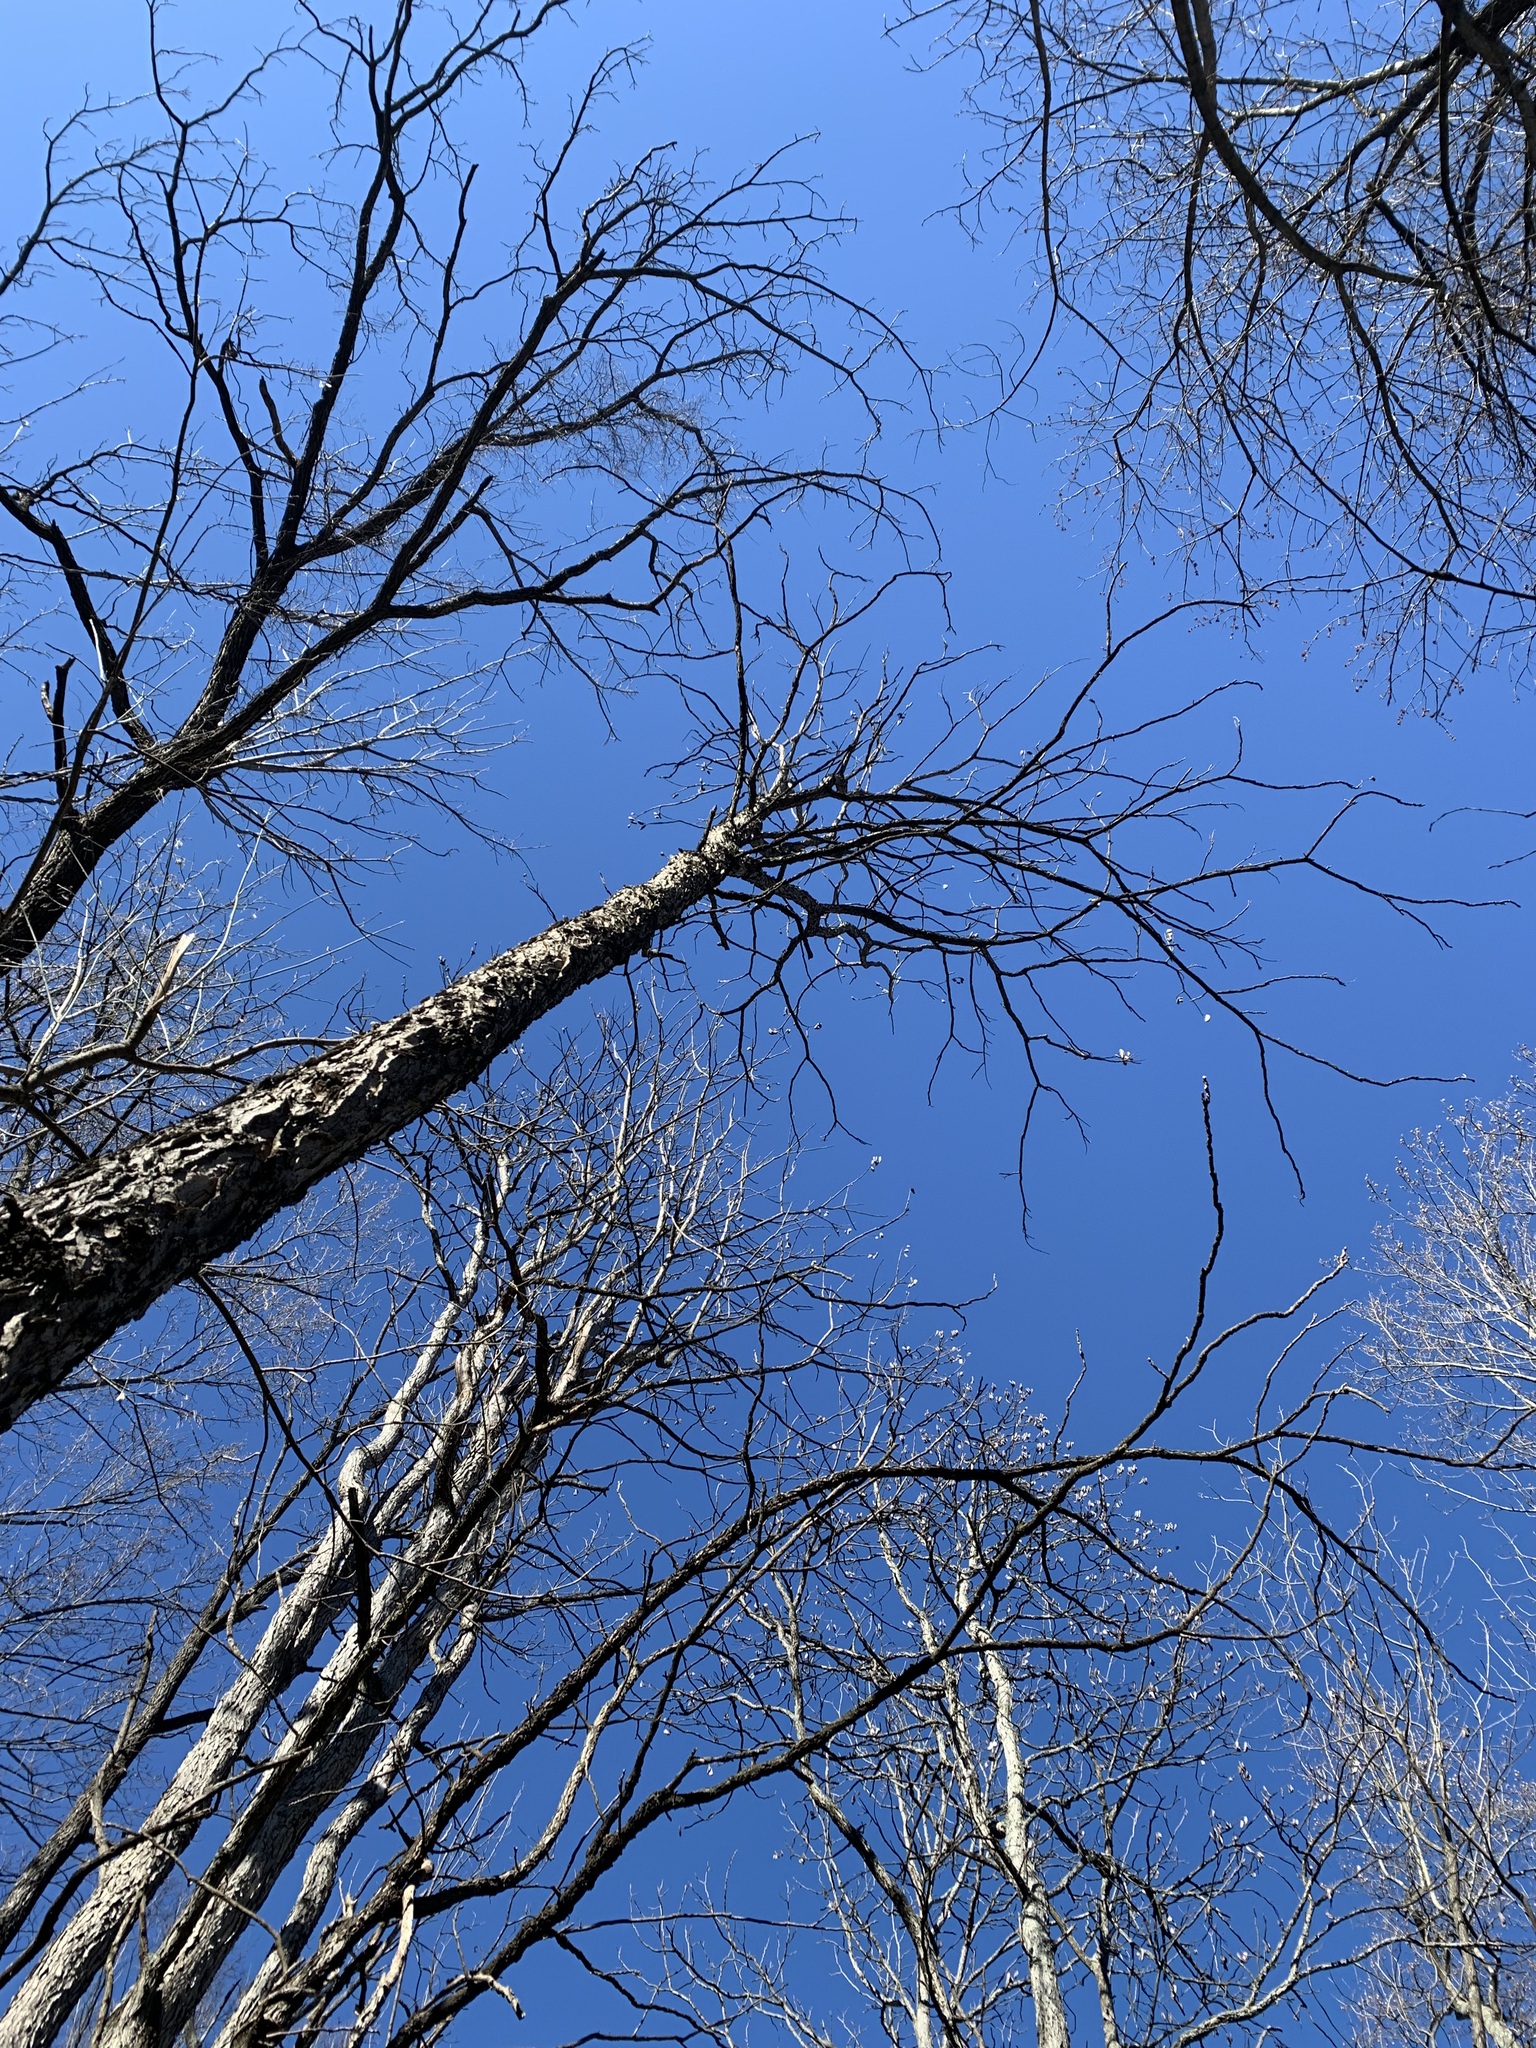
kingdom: Plantae
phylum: Tracheophyta
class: Magnoliopsida
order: Fabales
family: Fabaceae
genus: Gymnocladus
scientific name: Gymnocladus dioicus
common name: Kentucky coffee-tree
